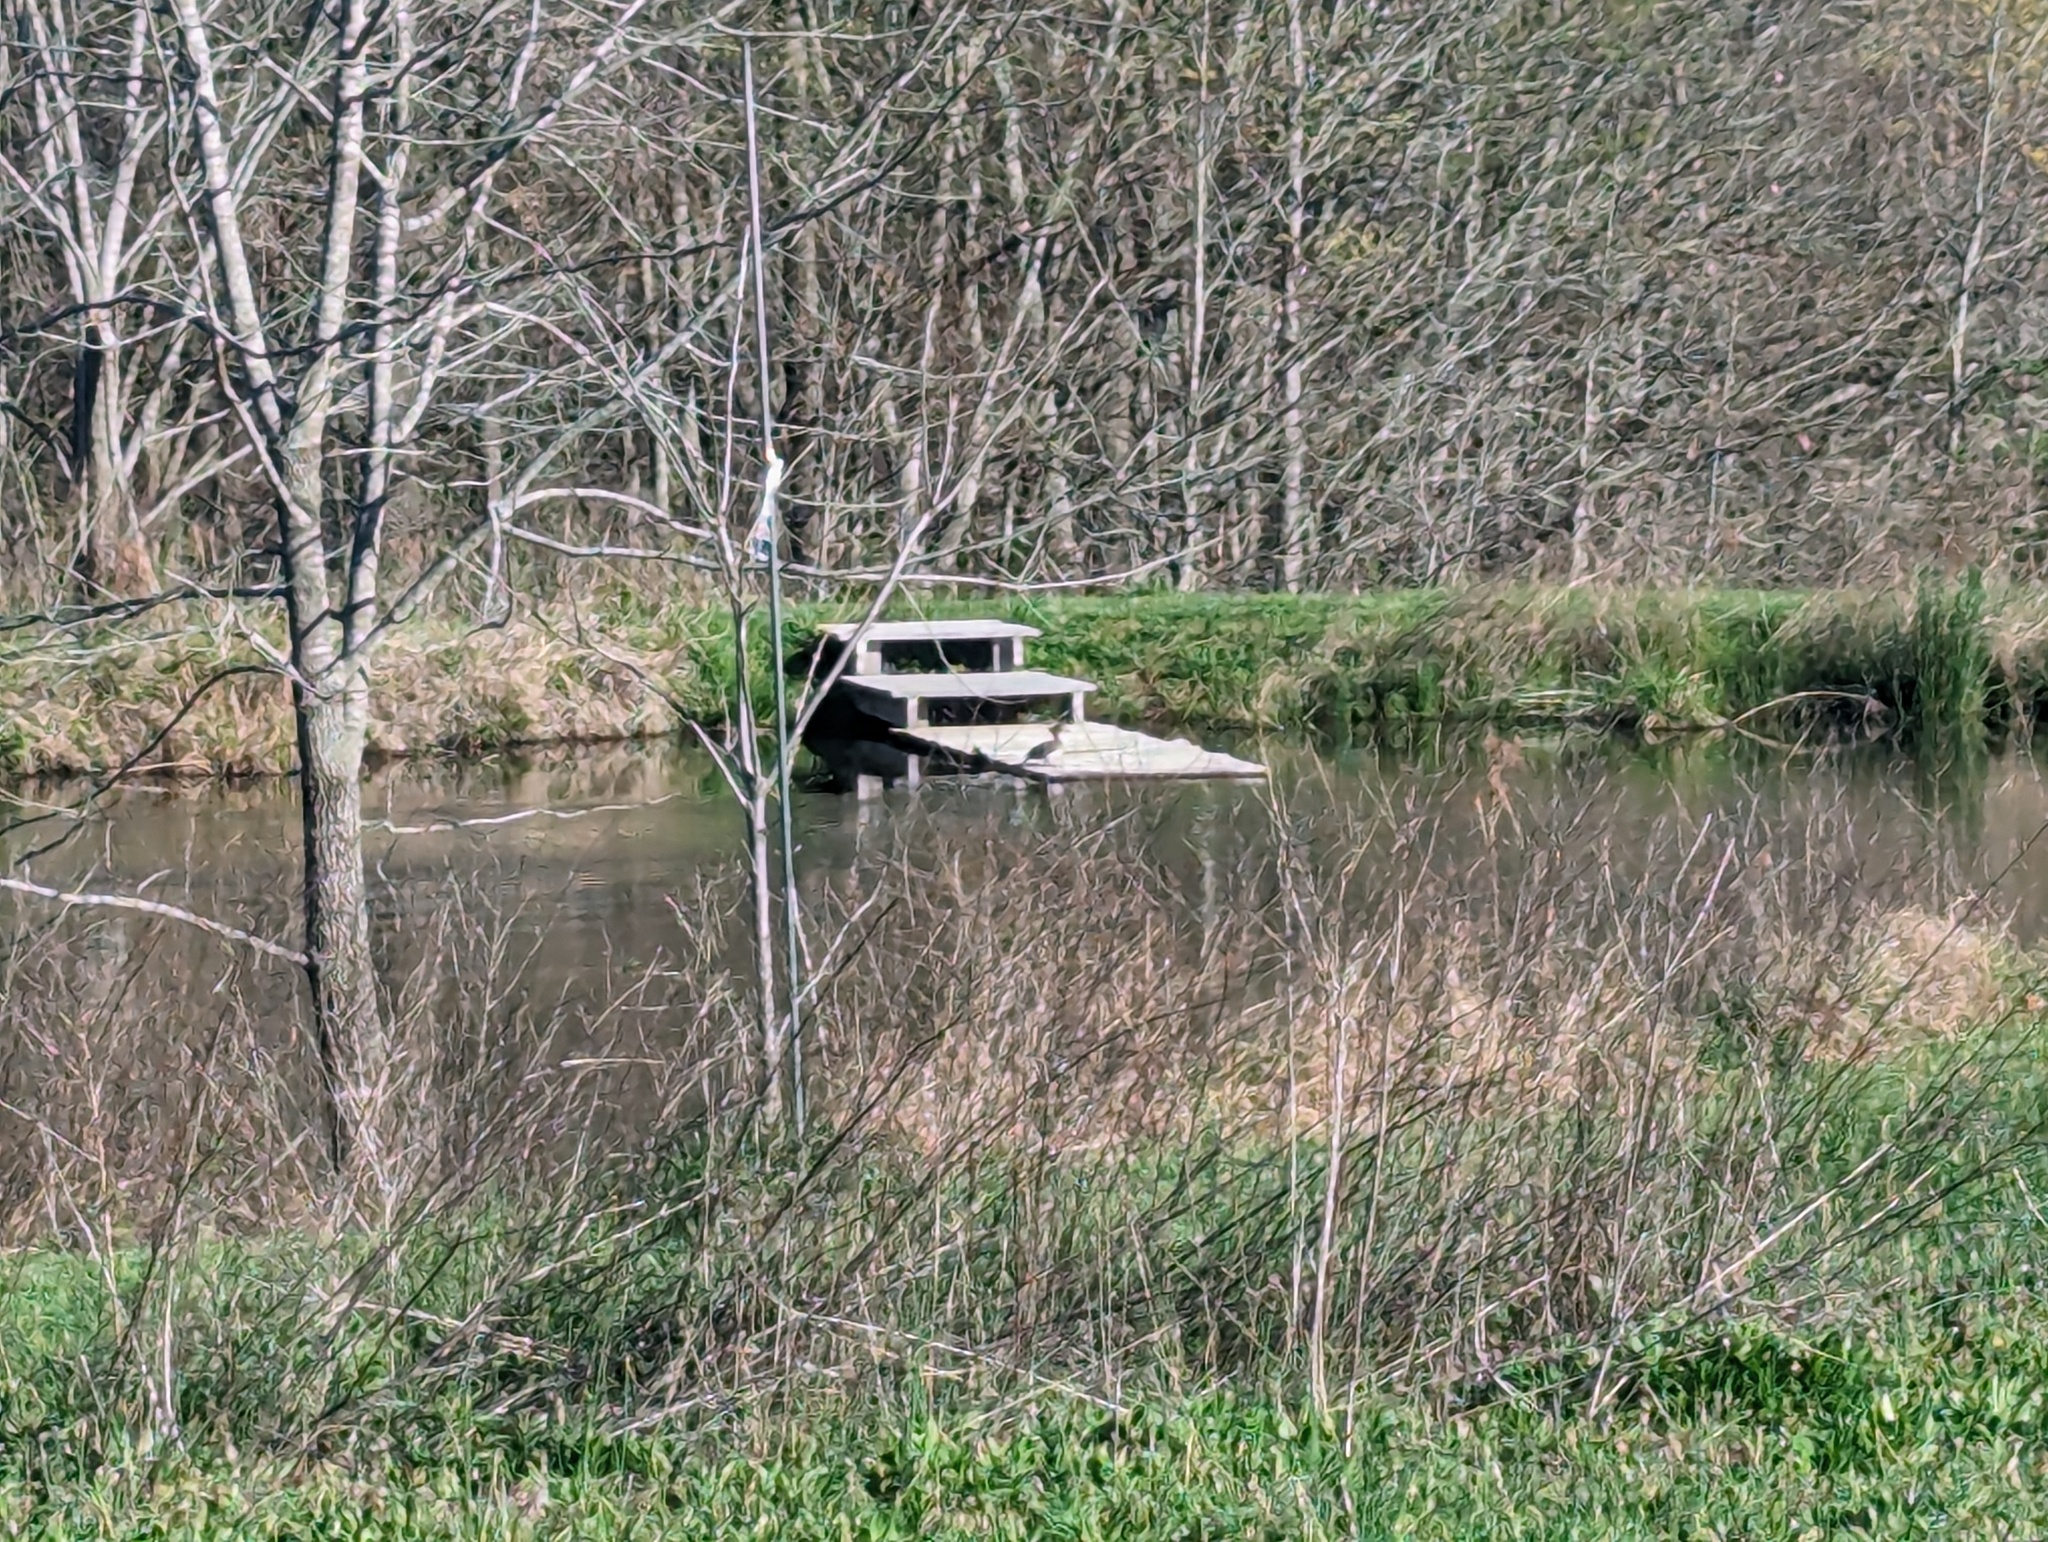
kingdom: Animalia
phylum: Chordata
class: Aves
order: Anseriformes
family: Anatidae
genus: Lophodytes
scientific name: Lophodytes cucullatus
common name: Hooded merganser
